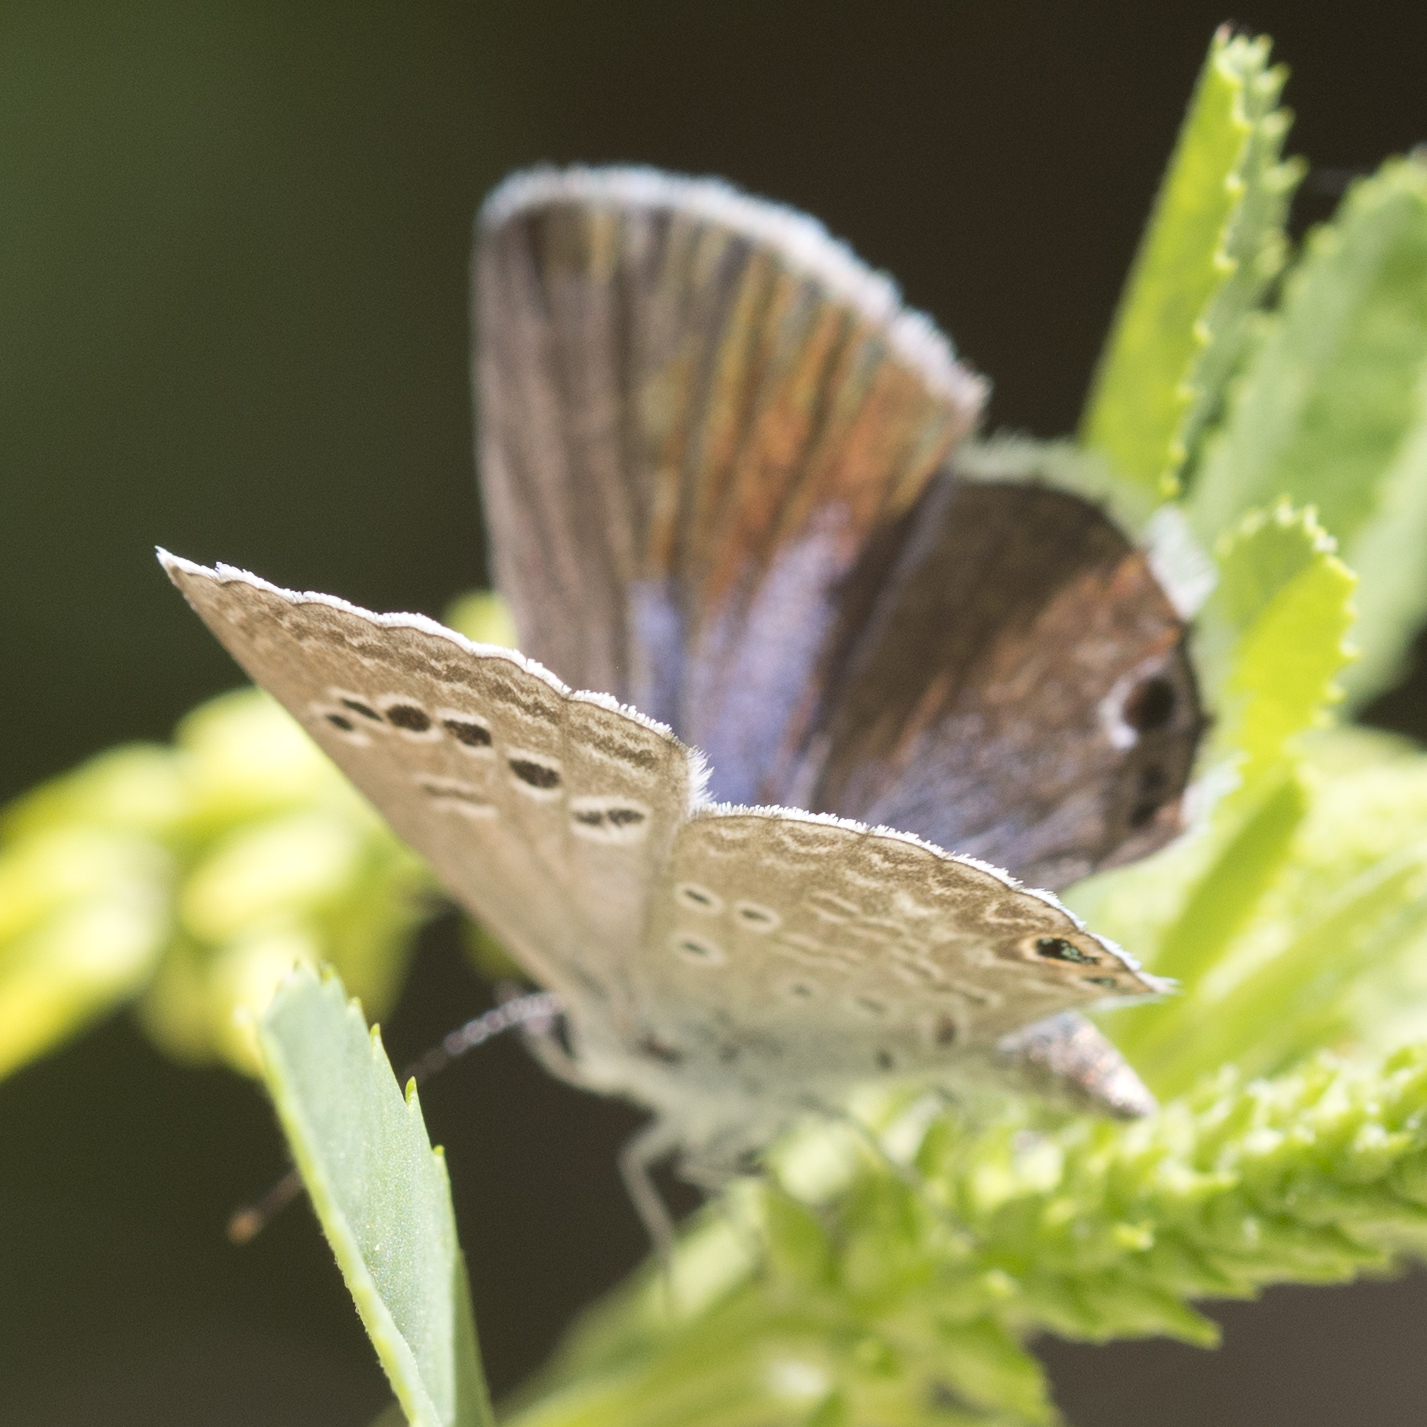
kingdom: Animalia
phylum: Arthropoda
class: Insecta
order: Lepidoptera
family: Lycaenidae
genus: Echinargus
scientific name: Echinargus isola
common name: Reakirt's blue
